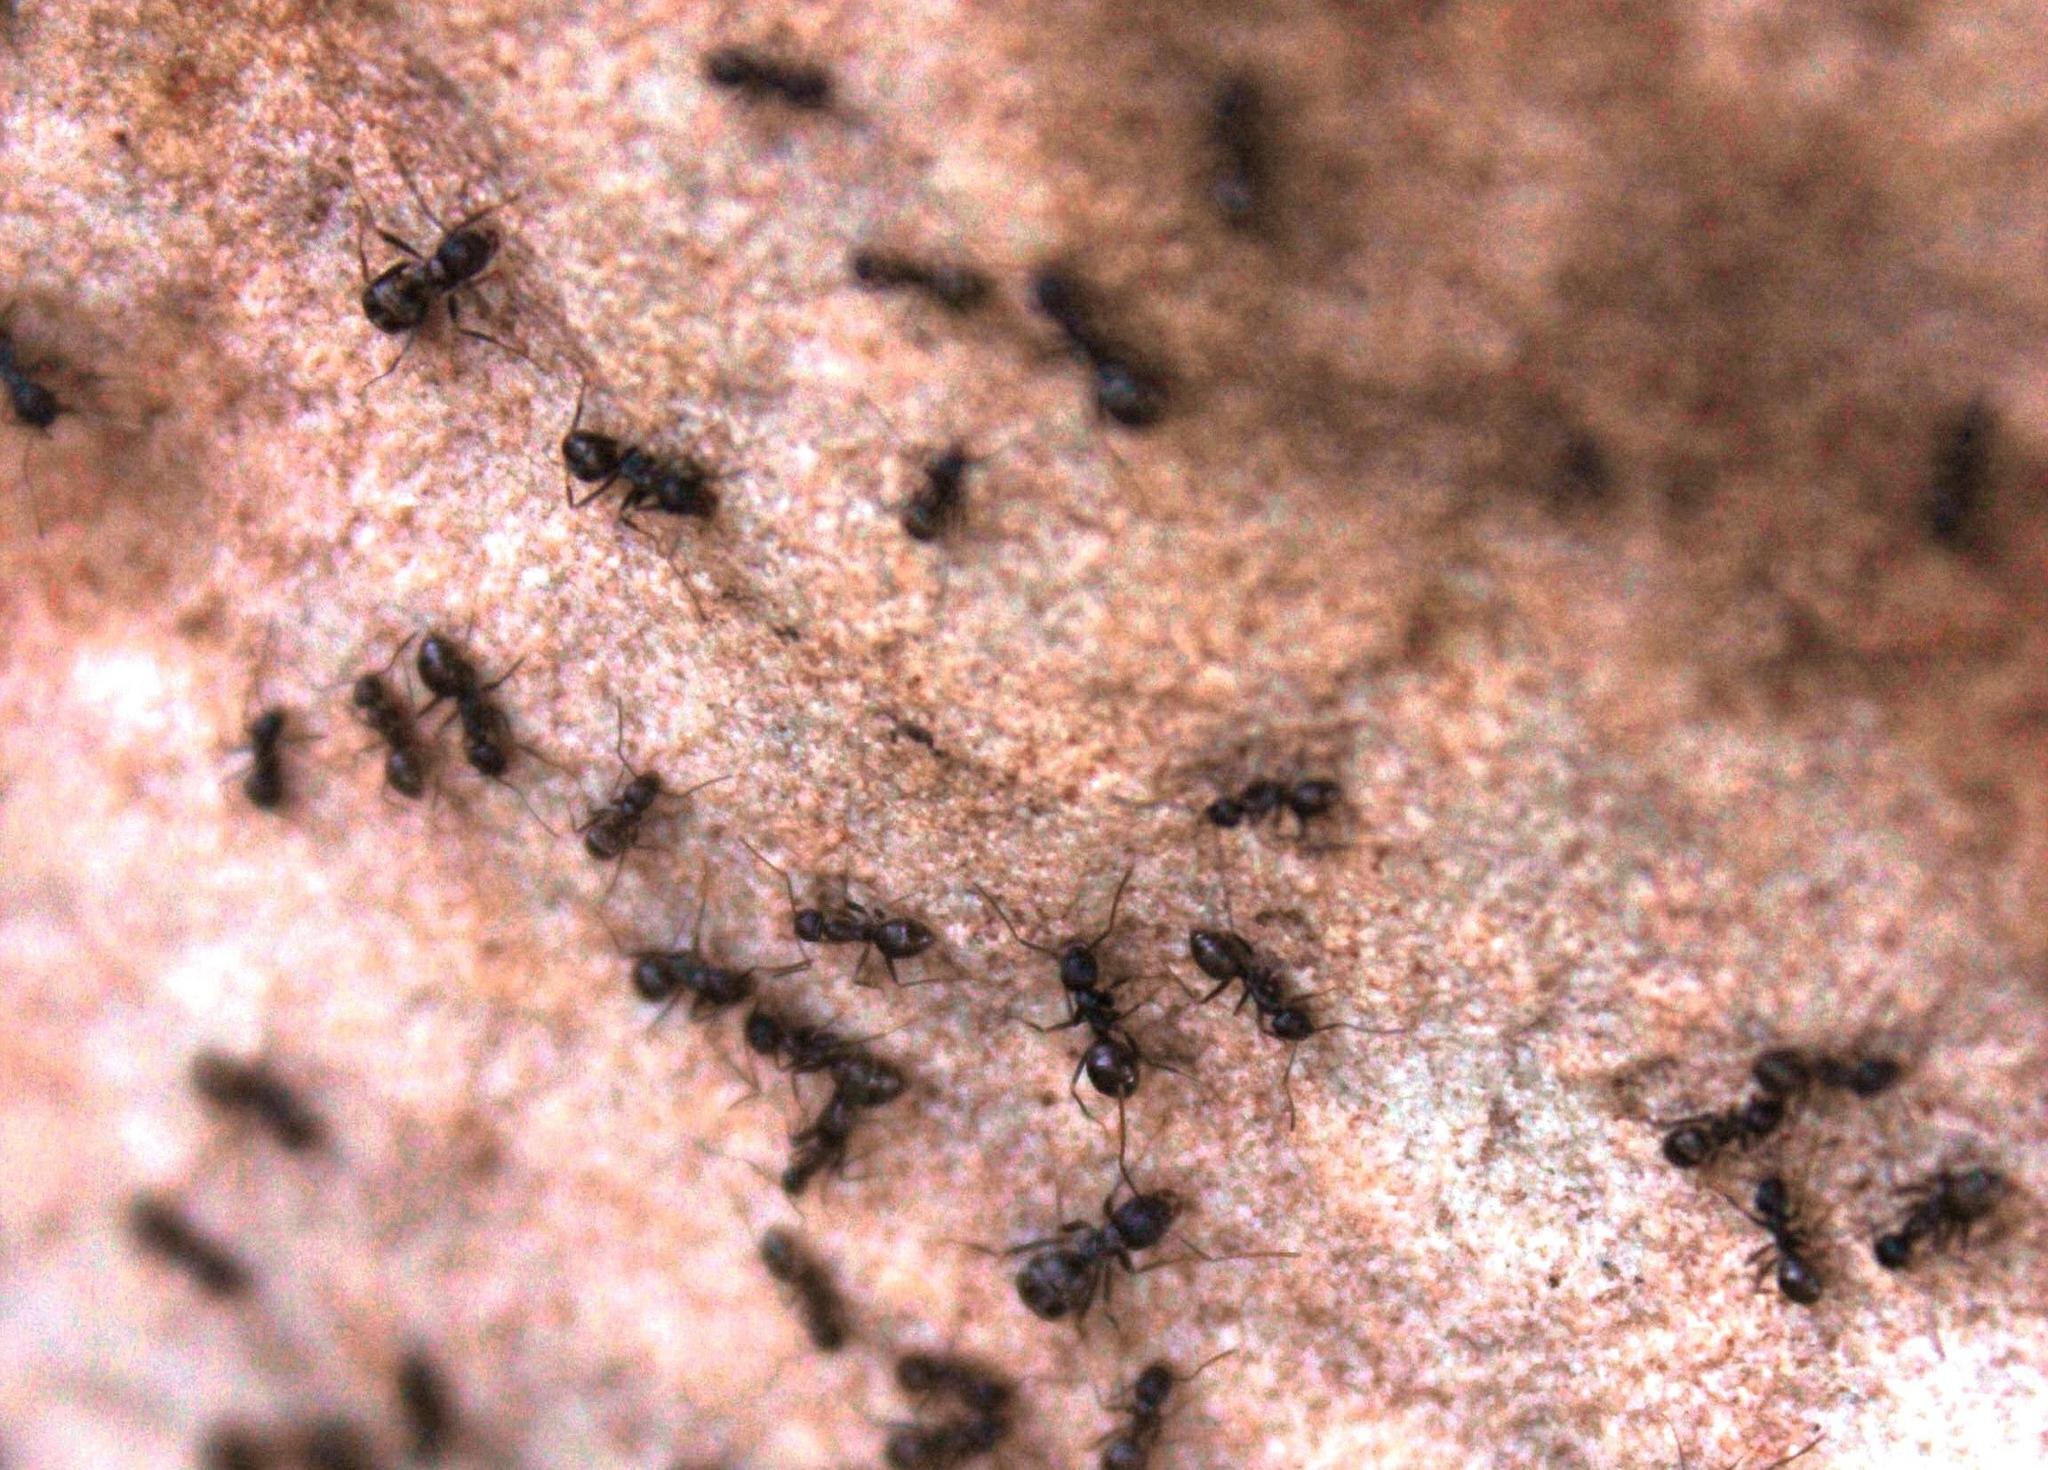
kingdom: Animalia
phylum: Arthropoda
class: Insecta
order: Hymenoptera
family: Formicidae
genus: Anoplolepis
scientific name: Anoplolepis steingroeveri
